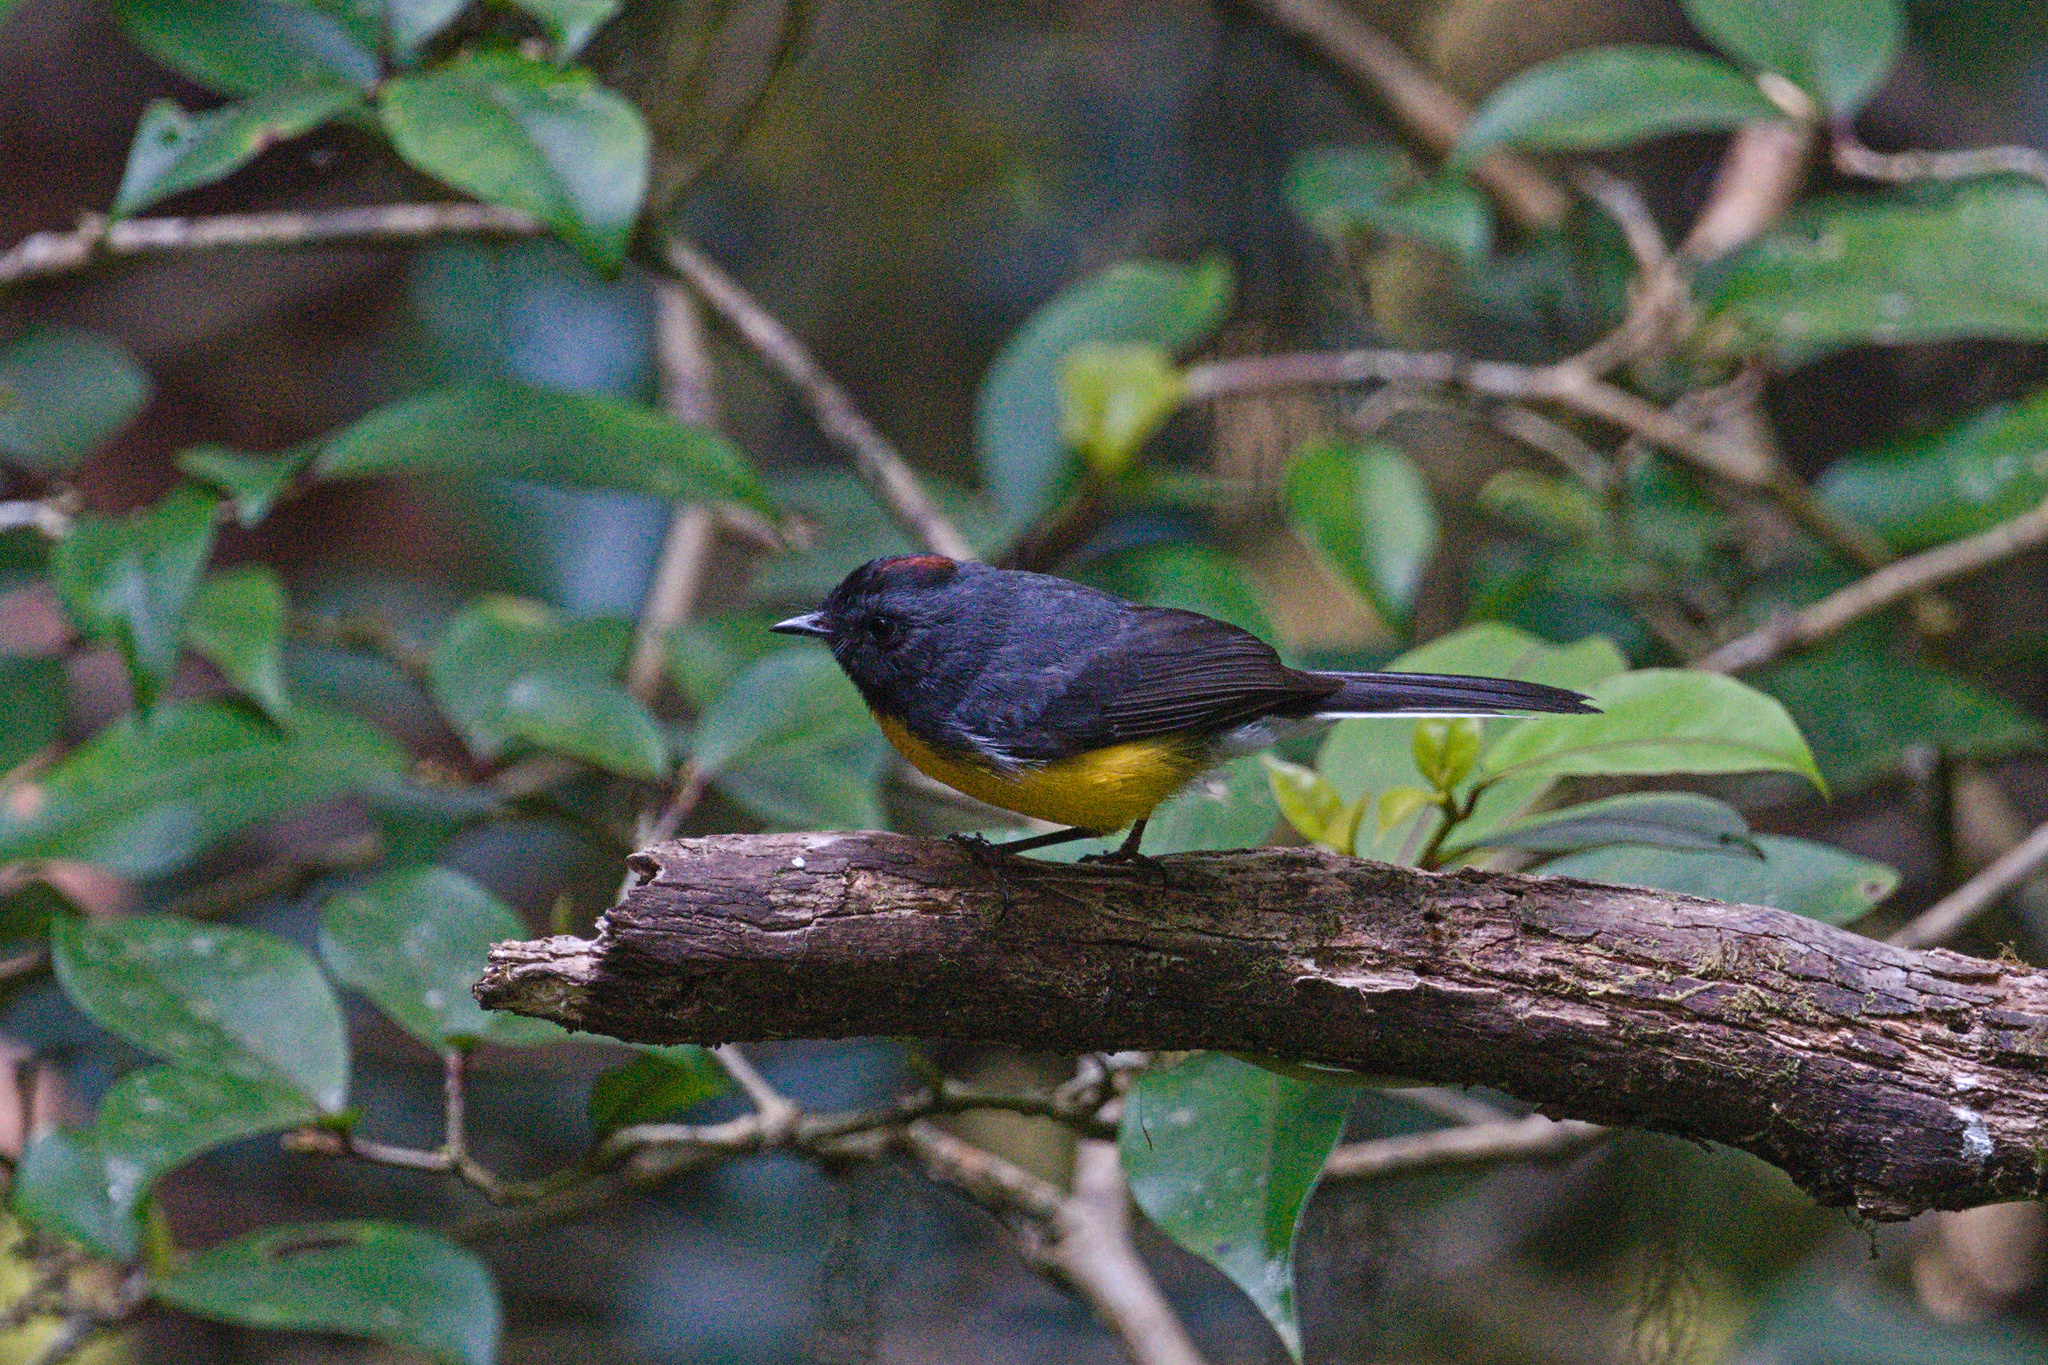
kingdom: Animalia
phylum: Chordata
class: Aves
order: Passeriformes
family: Parulidae
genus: Myioborus
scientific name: Myioborus miniatus
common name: Slate-throated redstart
